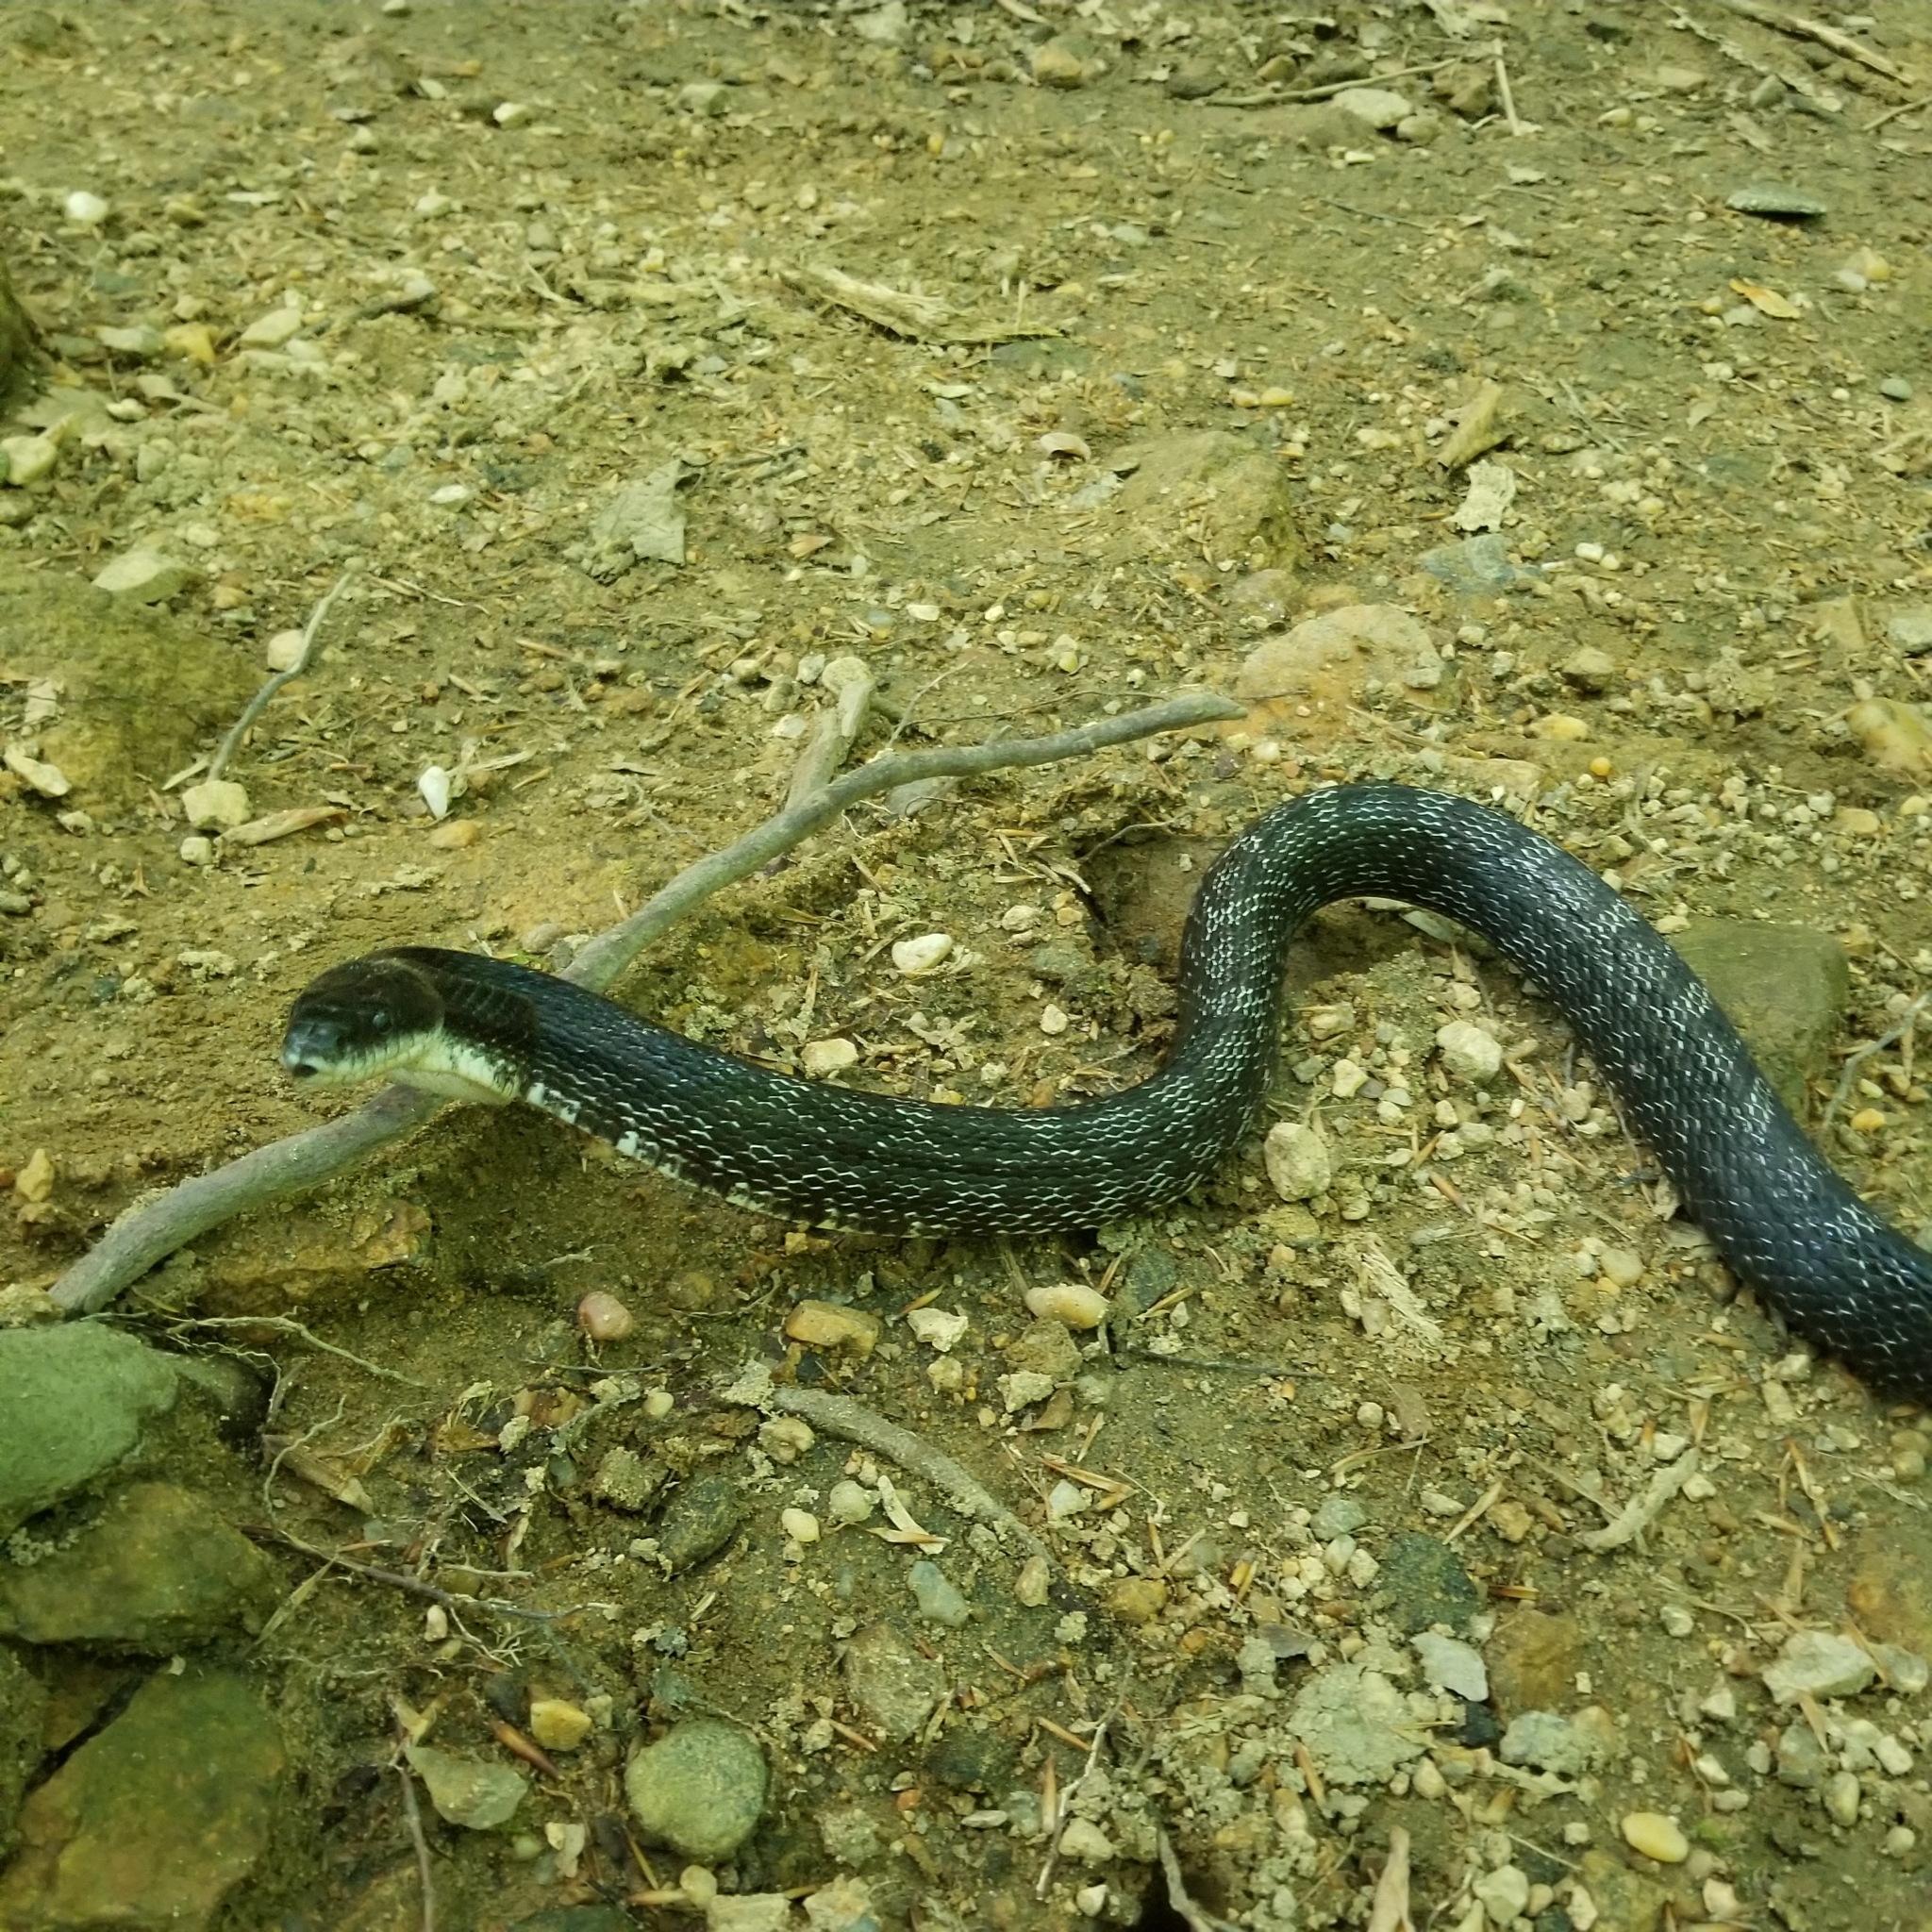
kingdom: Animalia
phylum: Chordata
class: Squamata
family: Colubridae
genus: Pantherophis
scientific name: Pantherophis alleghaniensis
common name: Eastern rat snake
